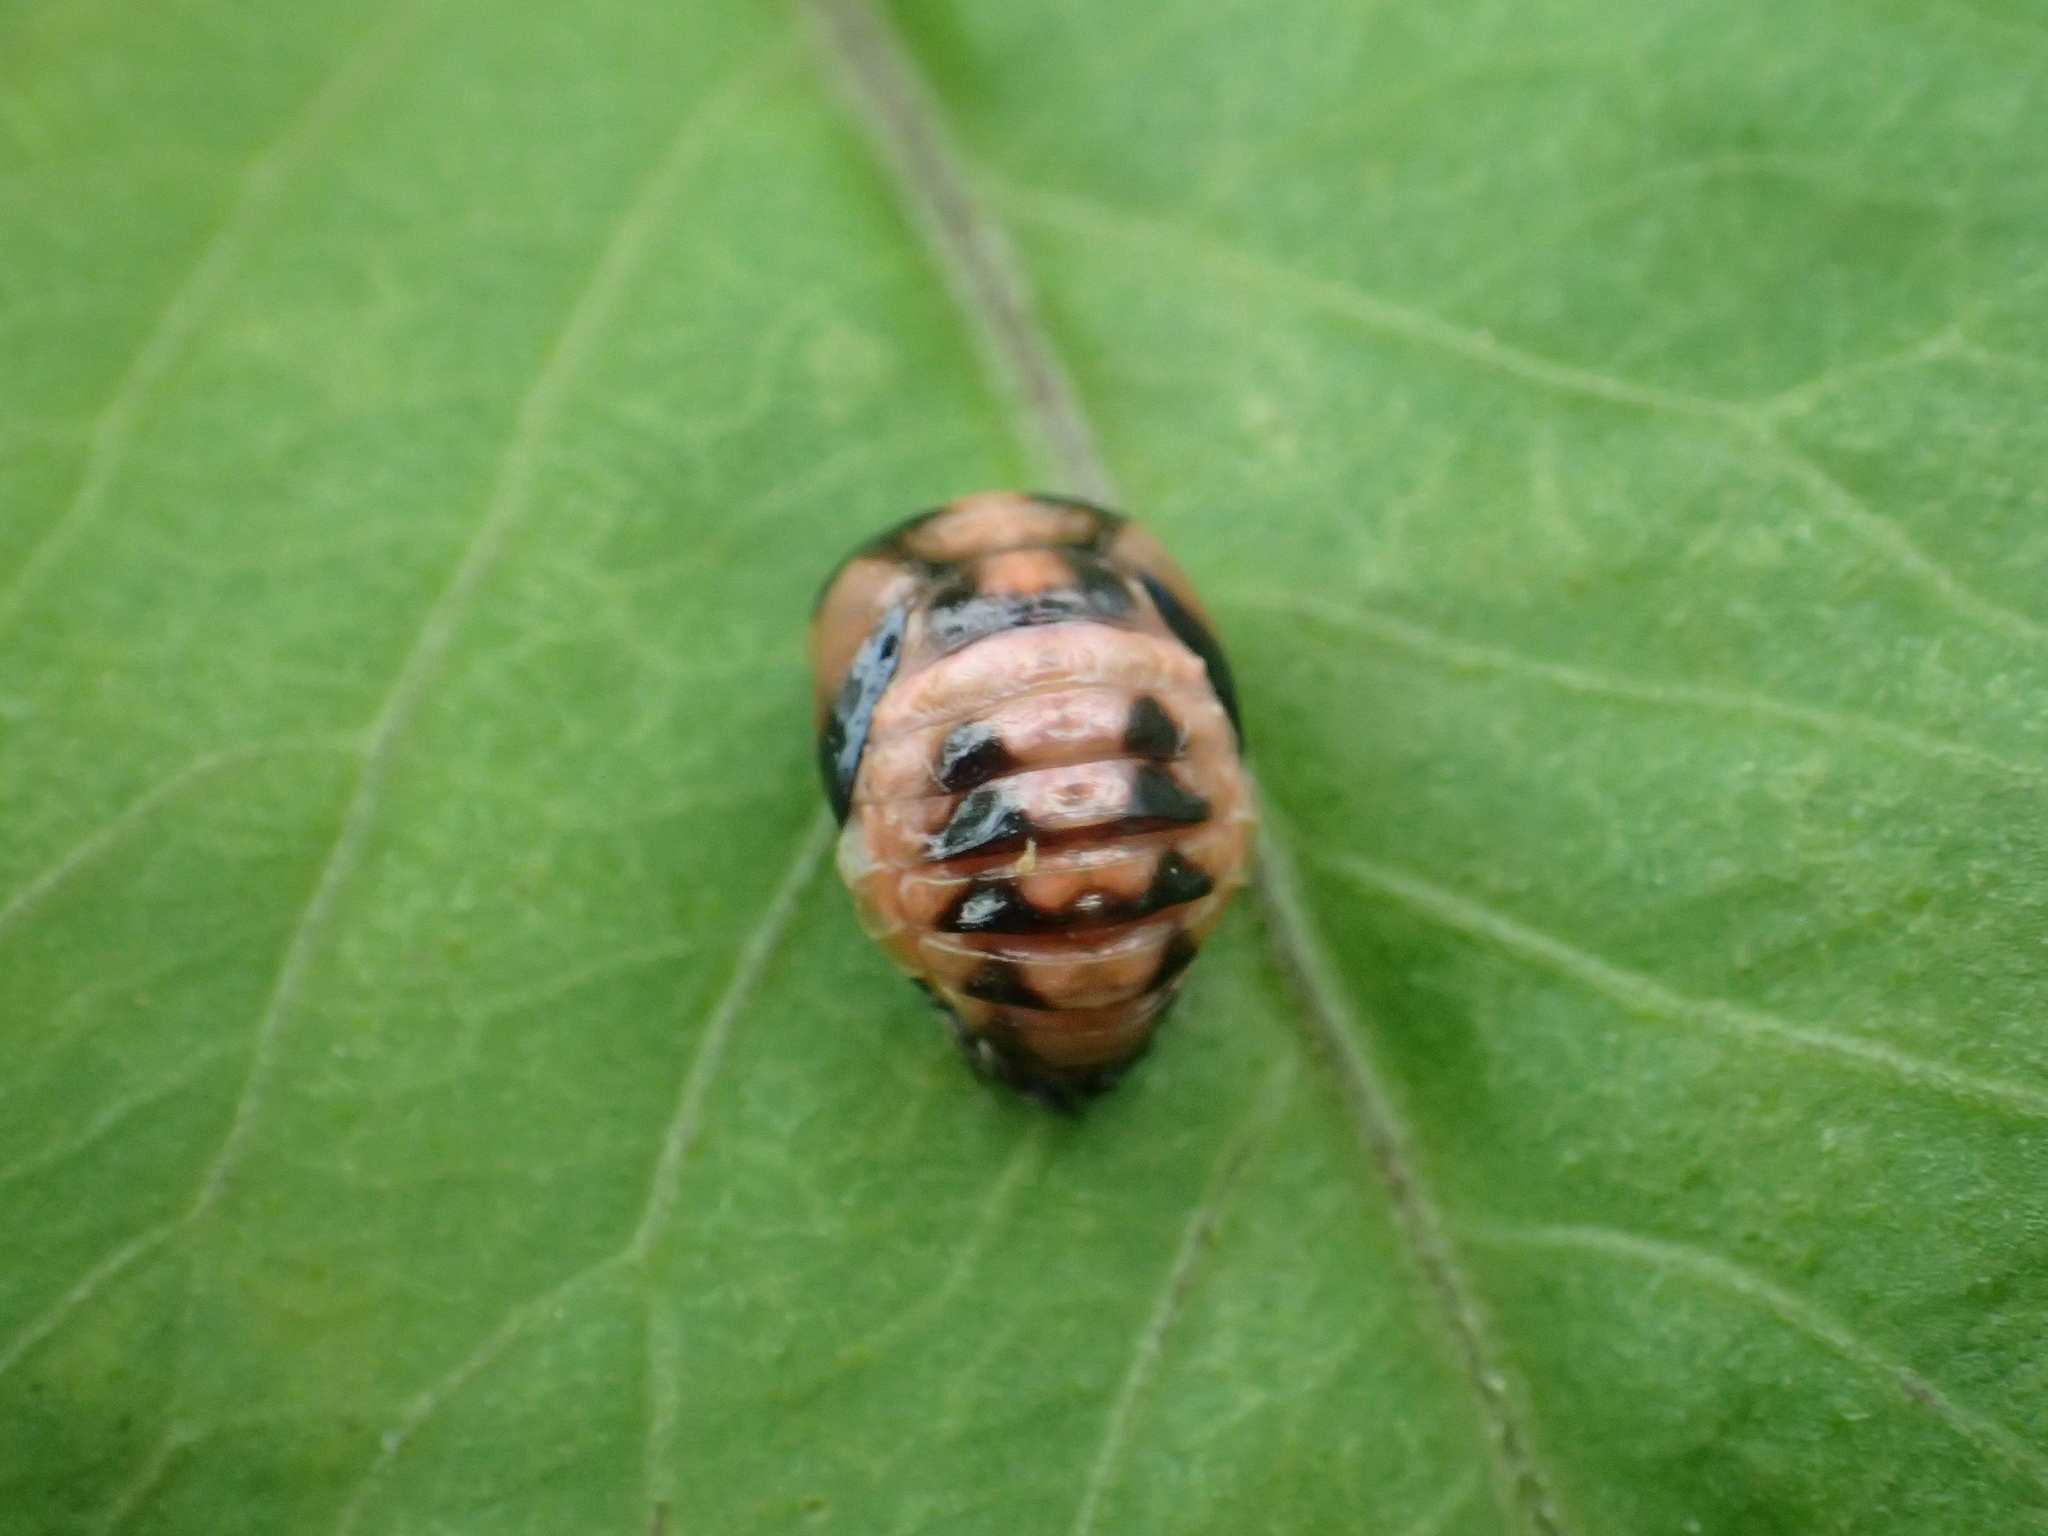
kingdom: Animalia
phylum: Arthropoda
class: Insecta
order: Coleoptera
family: Coccinellidae
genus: Cheilomenes
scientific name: Cheilomenes sexmaculata
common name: Ladybird beetle
